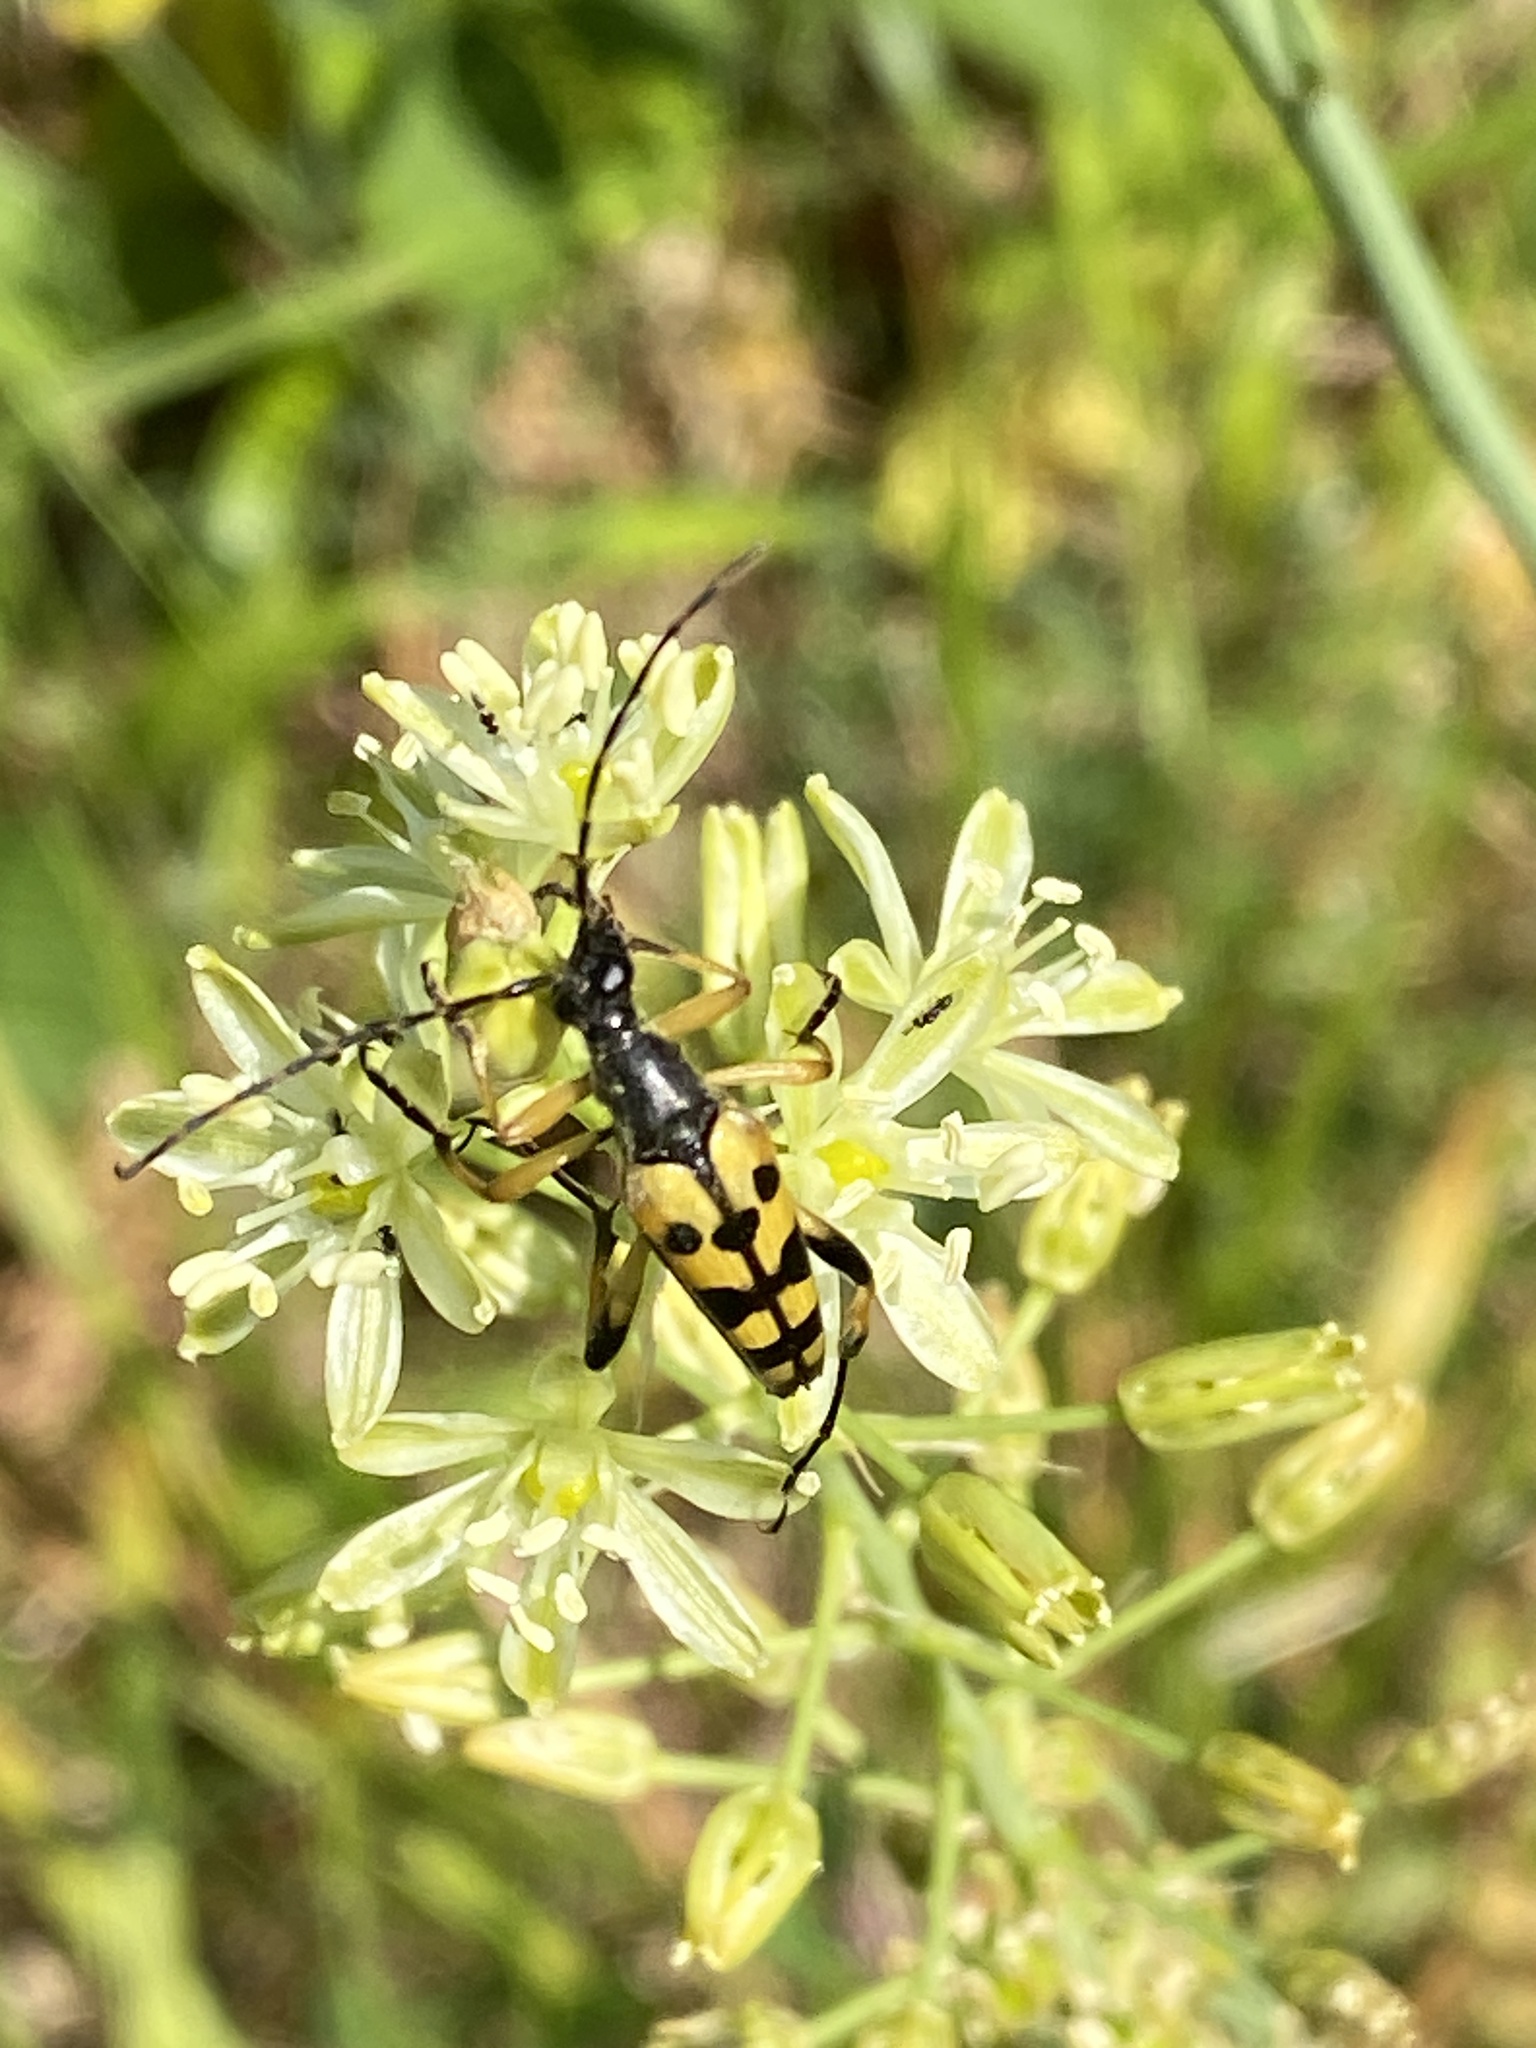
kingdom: Animalia
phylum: Arthropoda
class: Insecta
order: Coleoptera
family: Cerambycidae
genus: Rutpela
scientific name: Rutpela maculata
